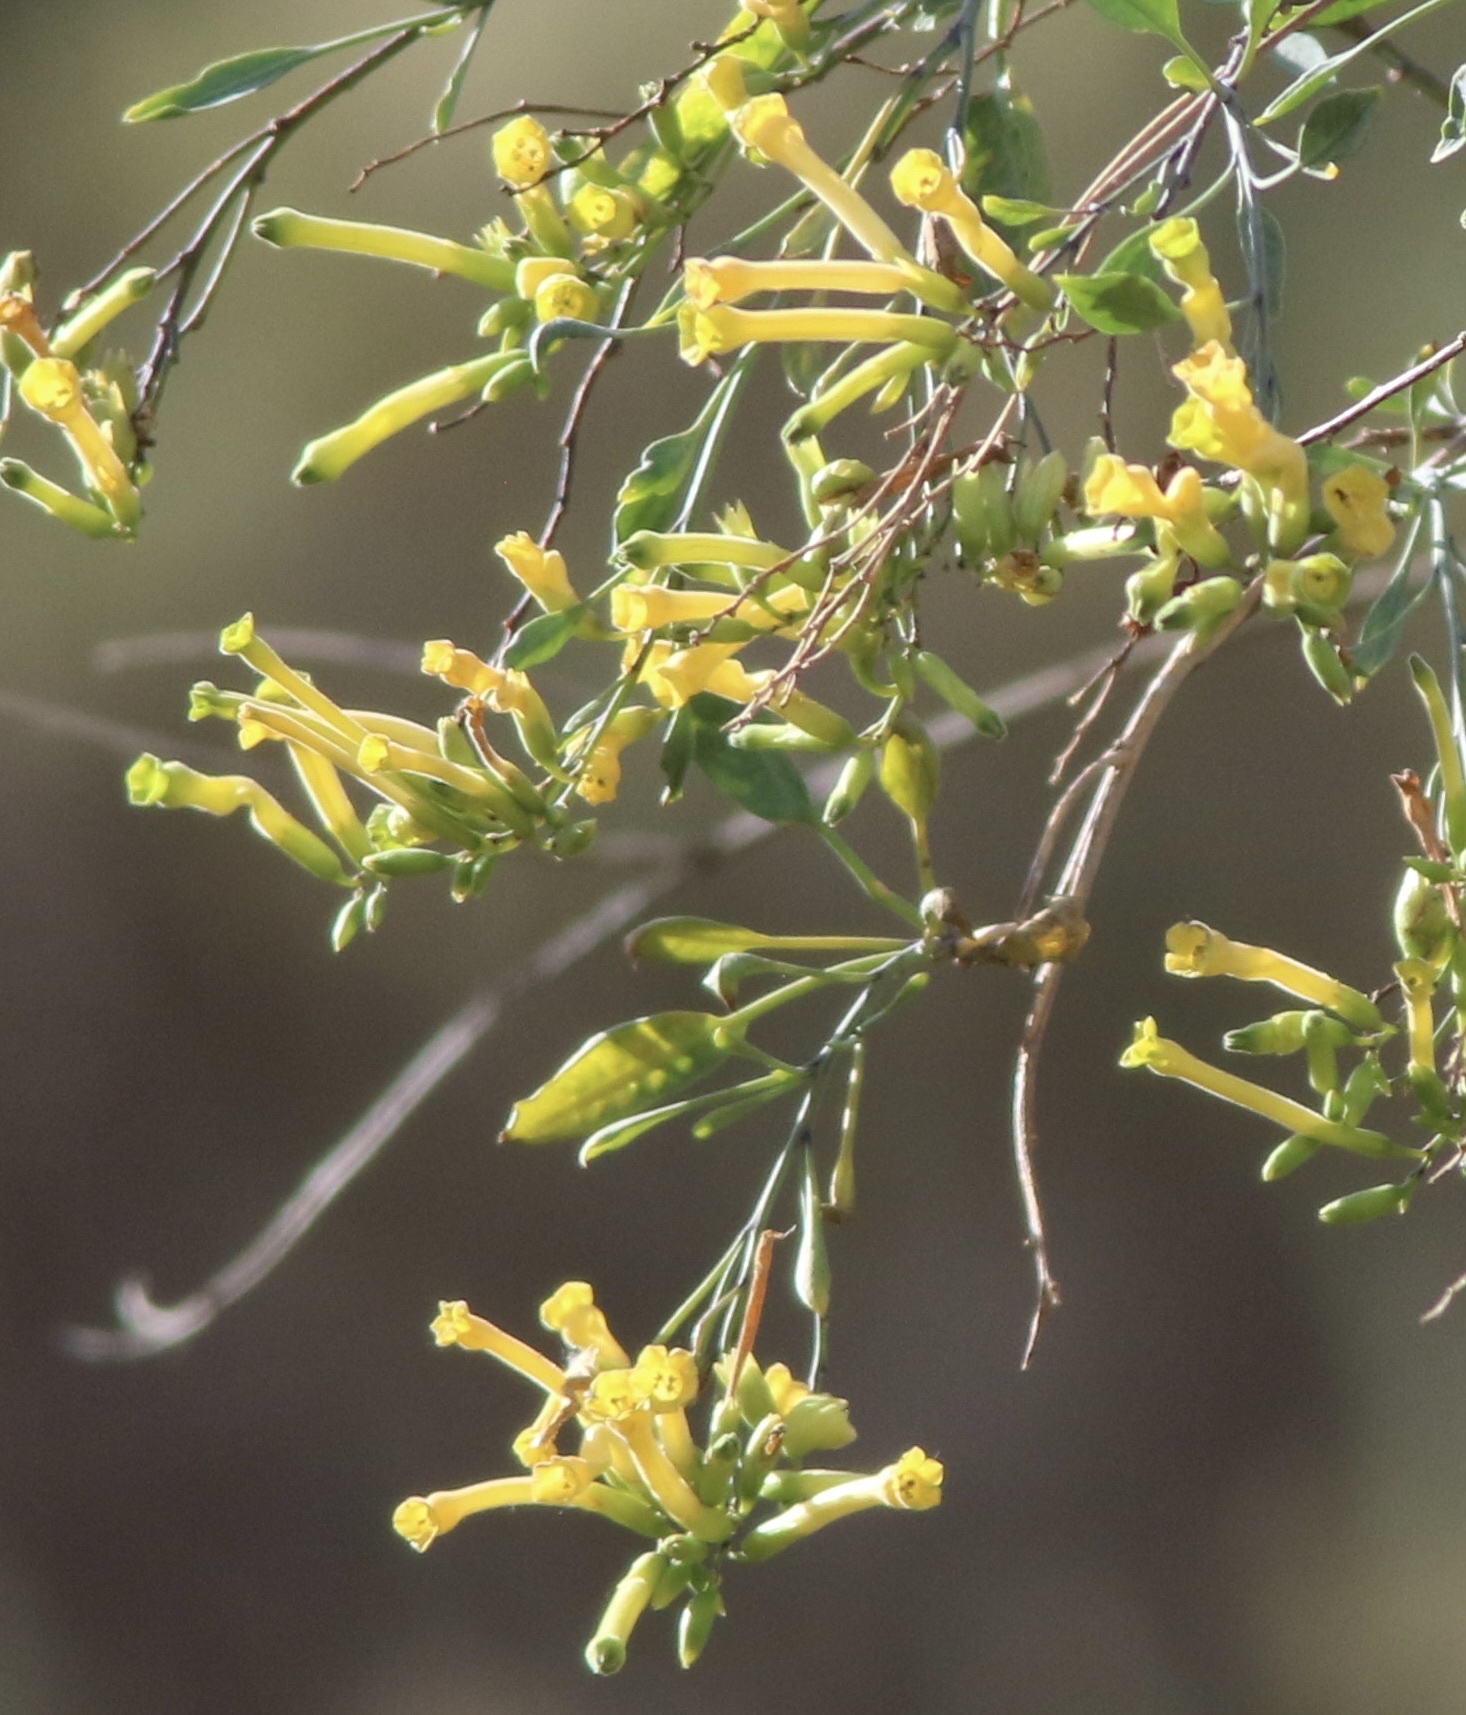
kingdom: Plantae
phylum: Tracheophyta
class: Magnoliopsida
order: Solanales
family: Solanaceae
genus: Nicotiana
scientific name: Nicotiana glauca
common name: Tree tobacco
